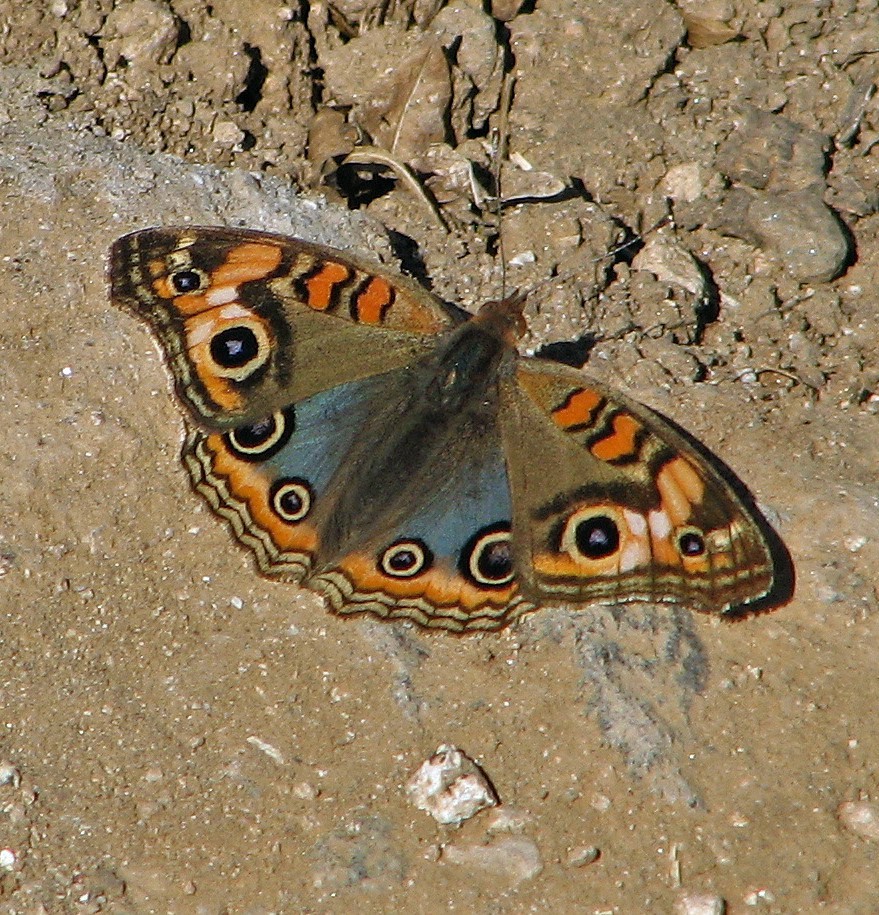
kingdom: Animalia
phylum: Arthropoda
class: Insecta
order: Lepidoptera
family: Nymphalidae
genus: Junonia
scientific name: Junonia lavinia
